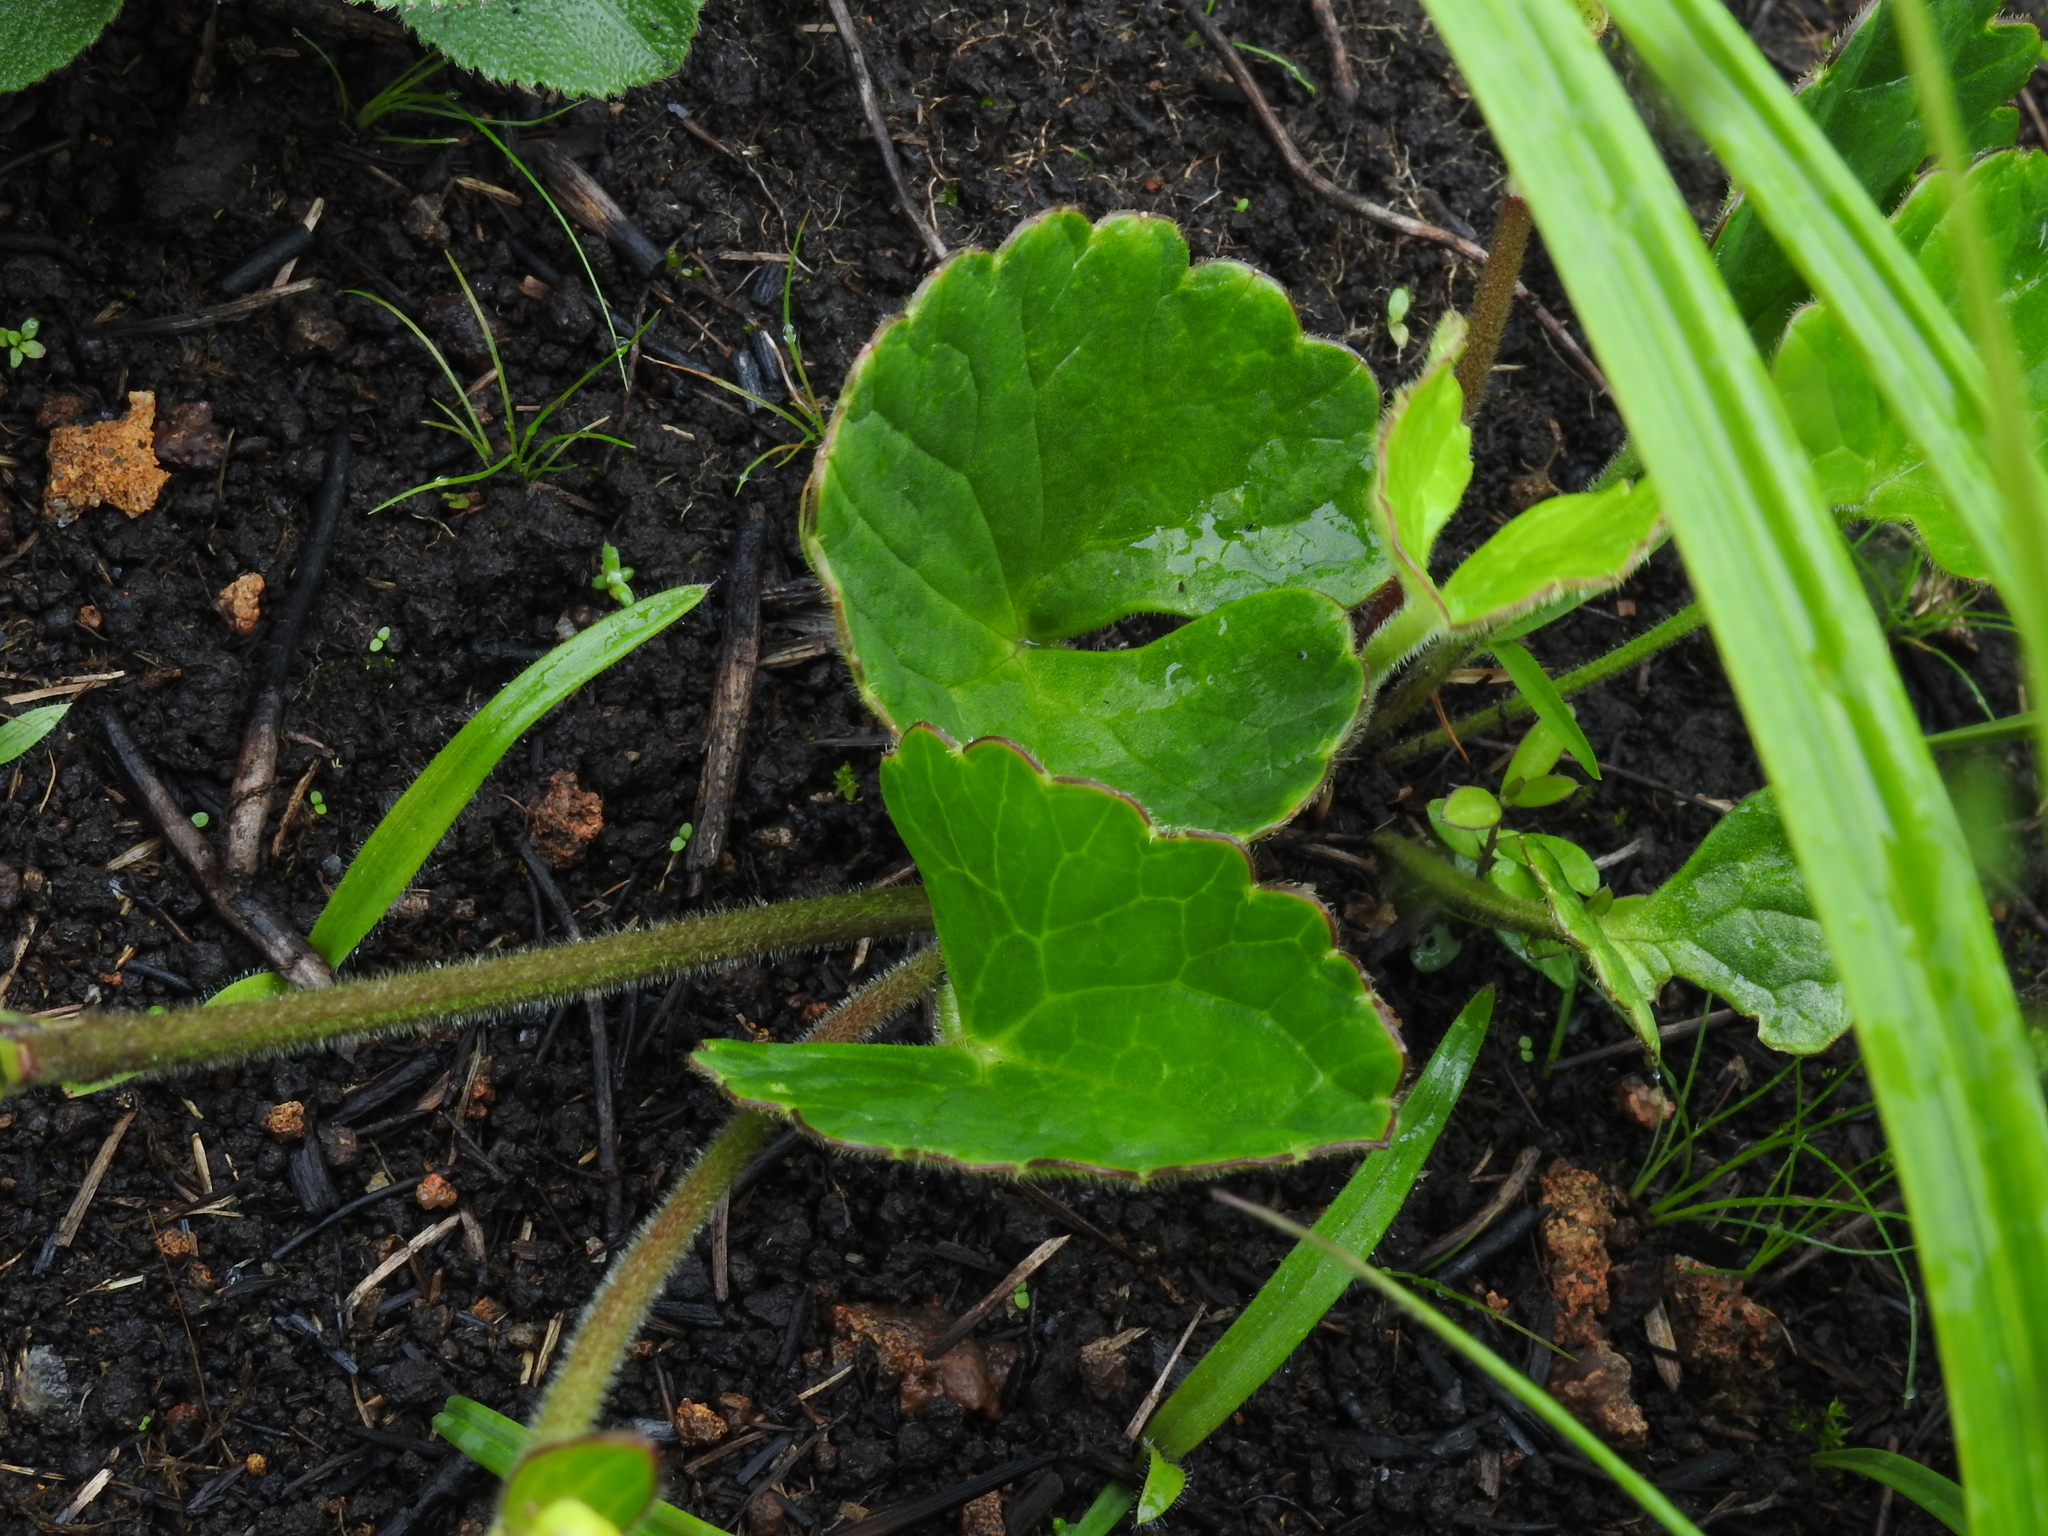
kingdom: Plantae
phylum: Tracheophyta
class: Magnoliopsida
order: Ranunculales
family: Ranunculaceae
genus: Ranunculus
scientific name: Ranunculus reniformis
